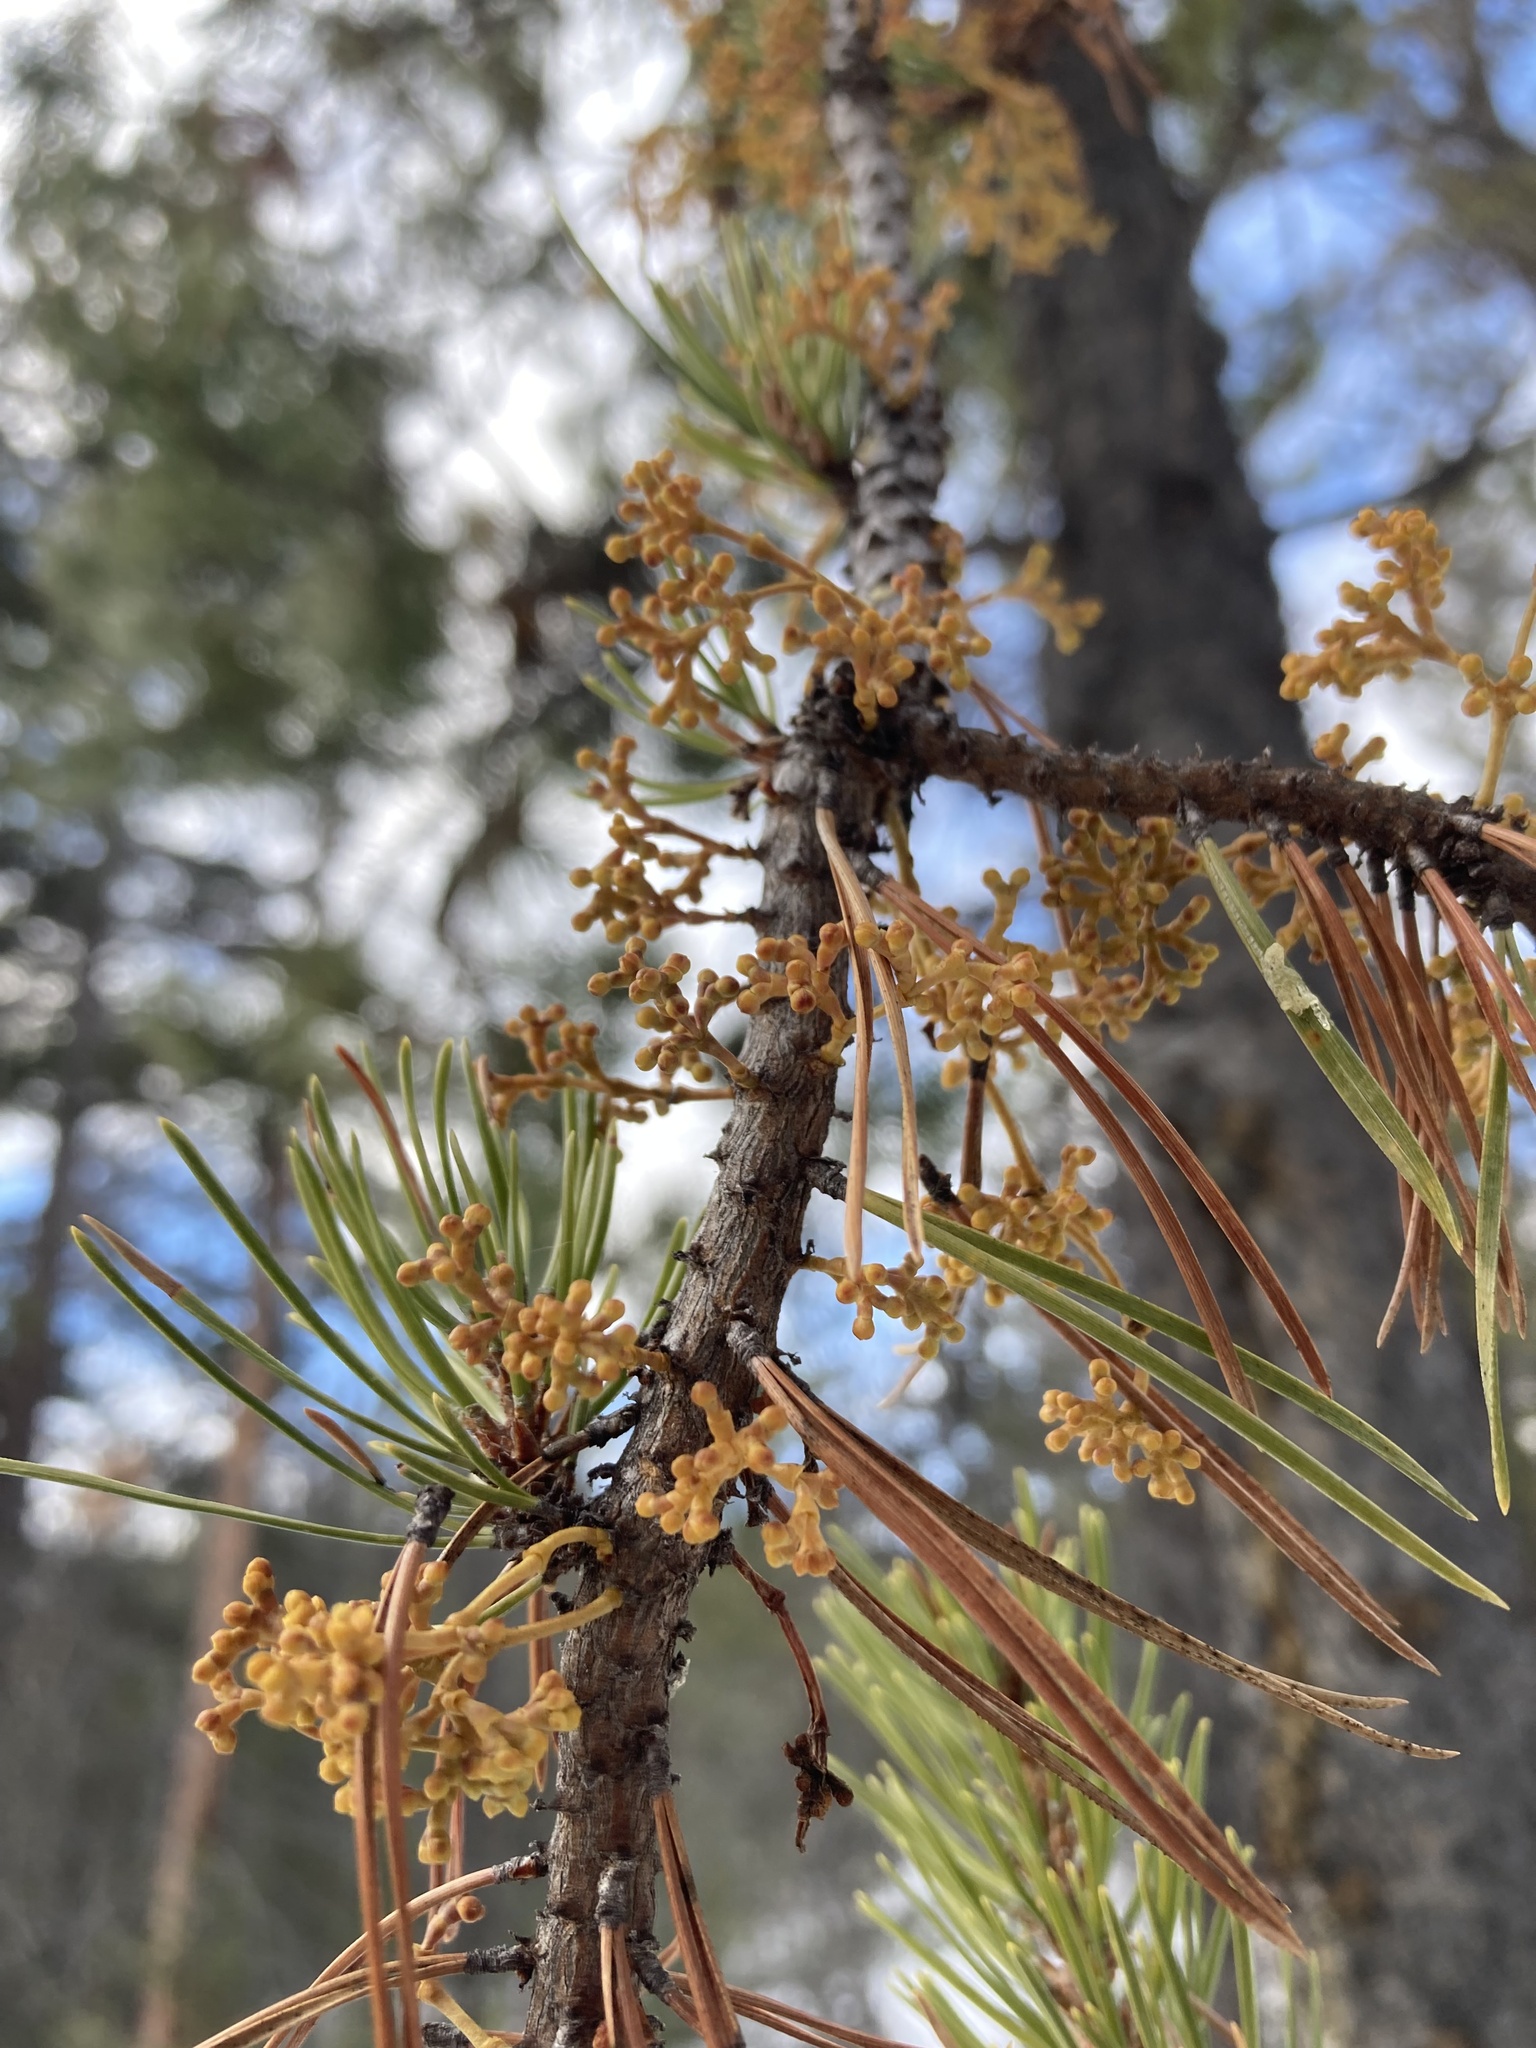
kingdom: Plantae
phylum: Tracheophyta
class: Magnoliopsida
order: Santalales
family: Viscaceae
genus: Arceuthobium
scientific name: Arceuthobium americanum
